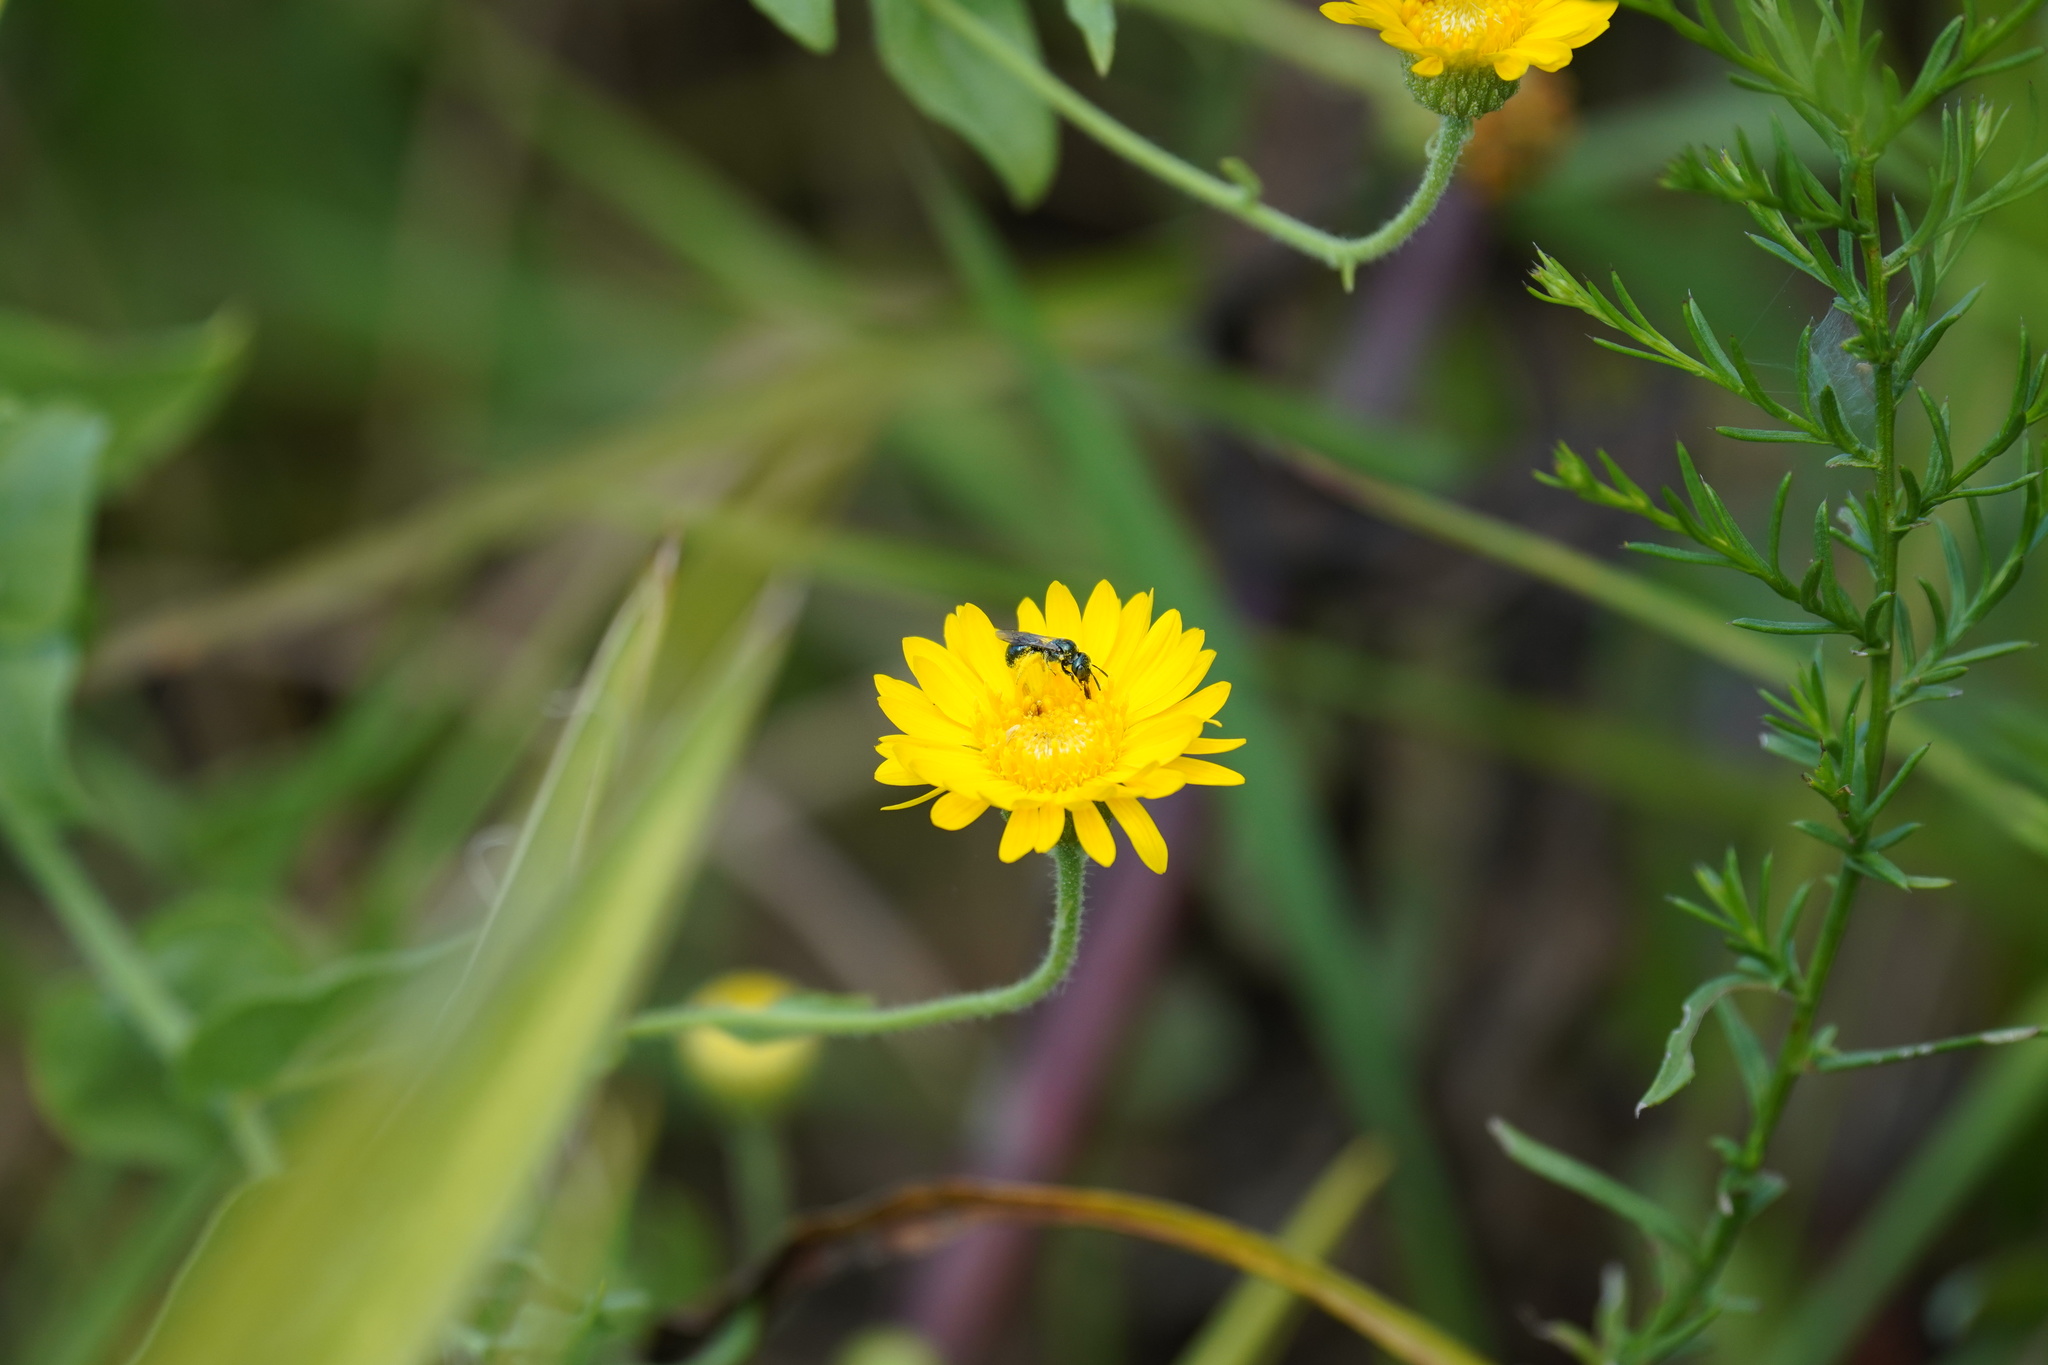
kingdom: Animalia
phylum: Arthropoda
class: Insecta
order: Hymenoptera
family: Apidae
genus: Zadontomerus
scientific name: Zadontomerus
